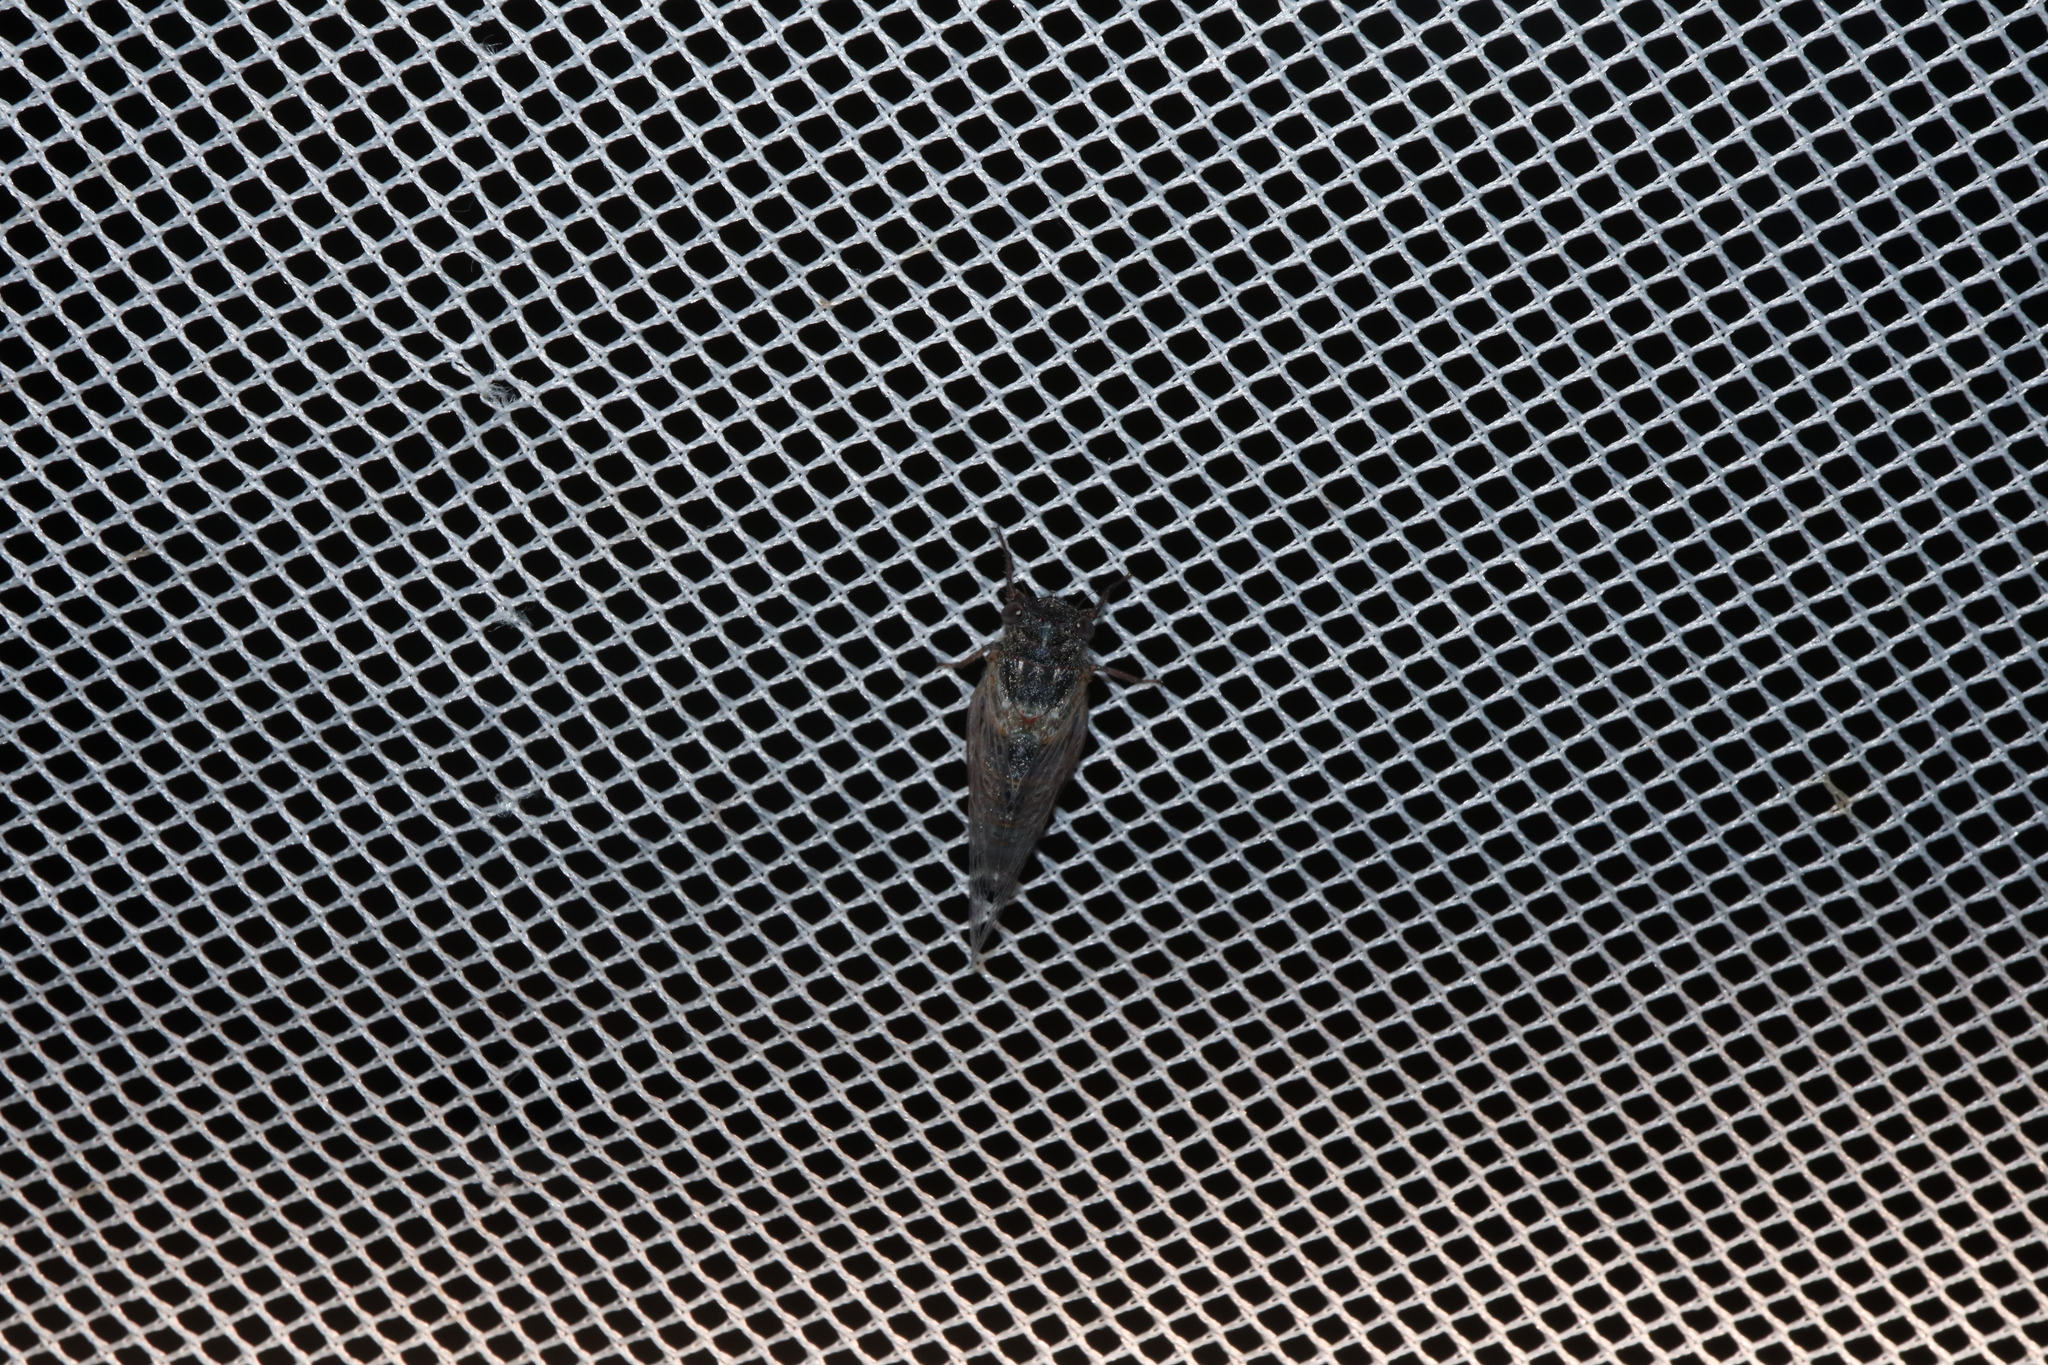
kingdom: Animalia
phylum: Arthropoda
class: Insecta
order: Hemiptera
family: Cicadidae
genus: Atrapsalta
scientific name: Atrapsalta dolens
